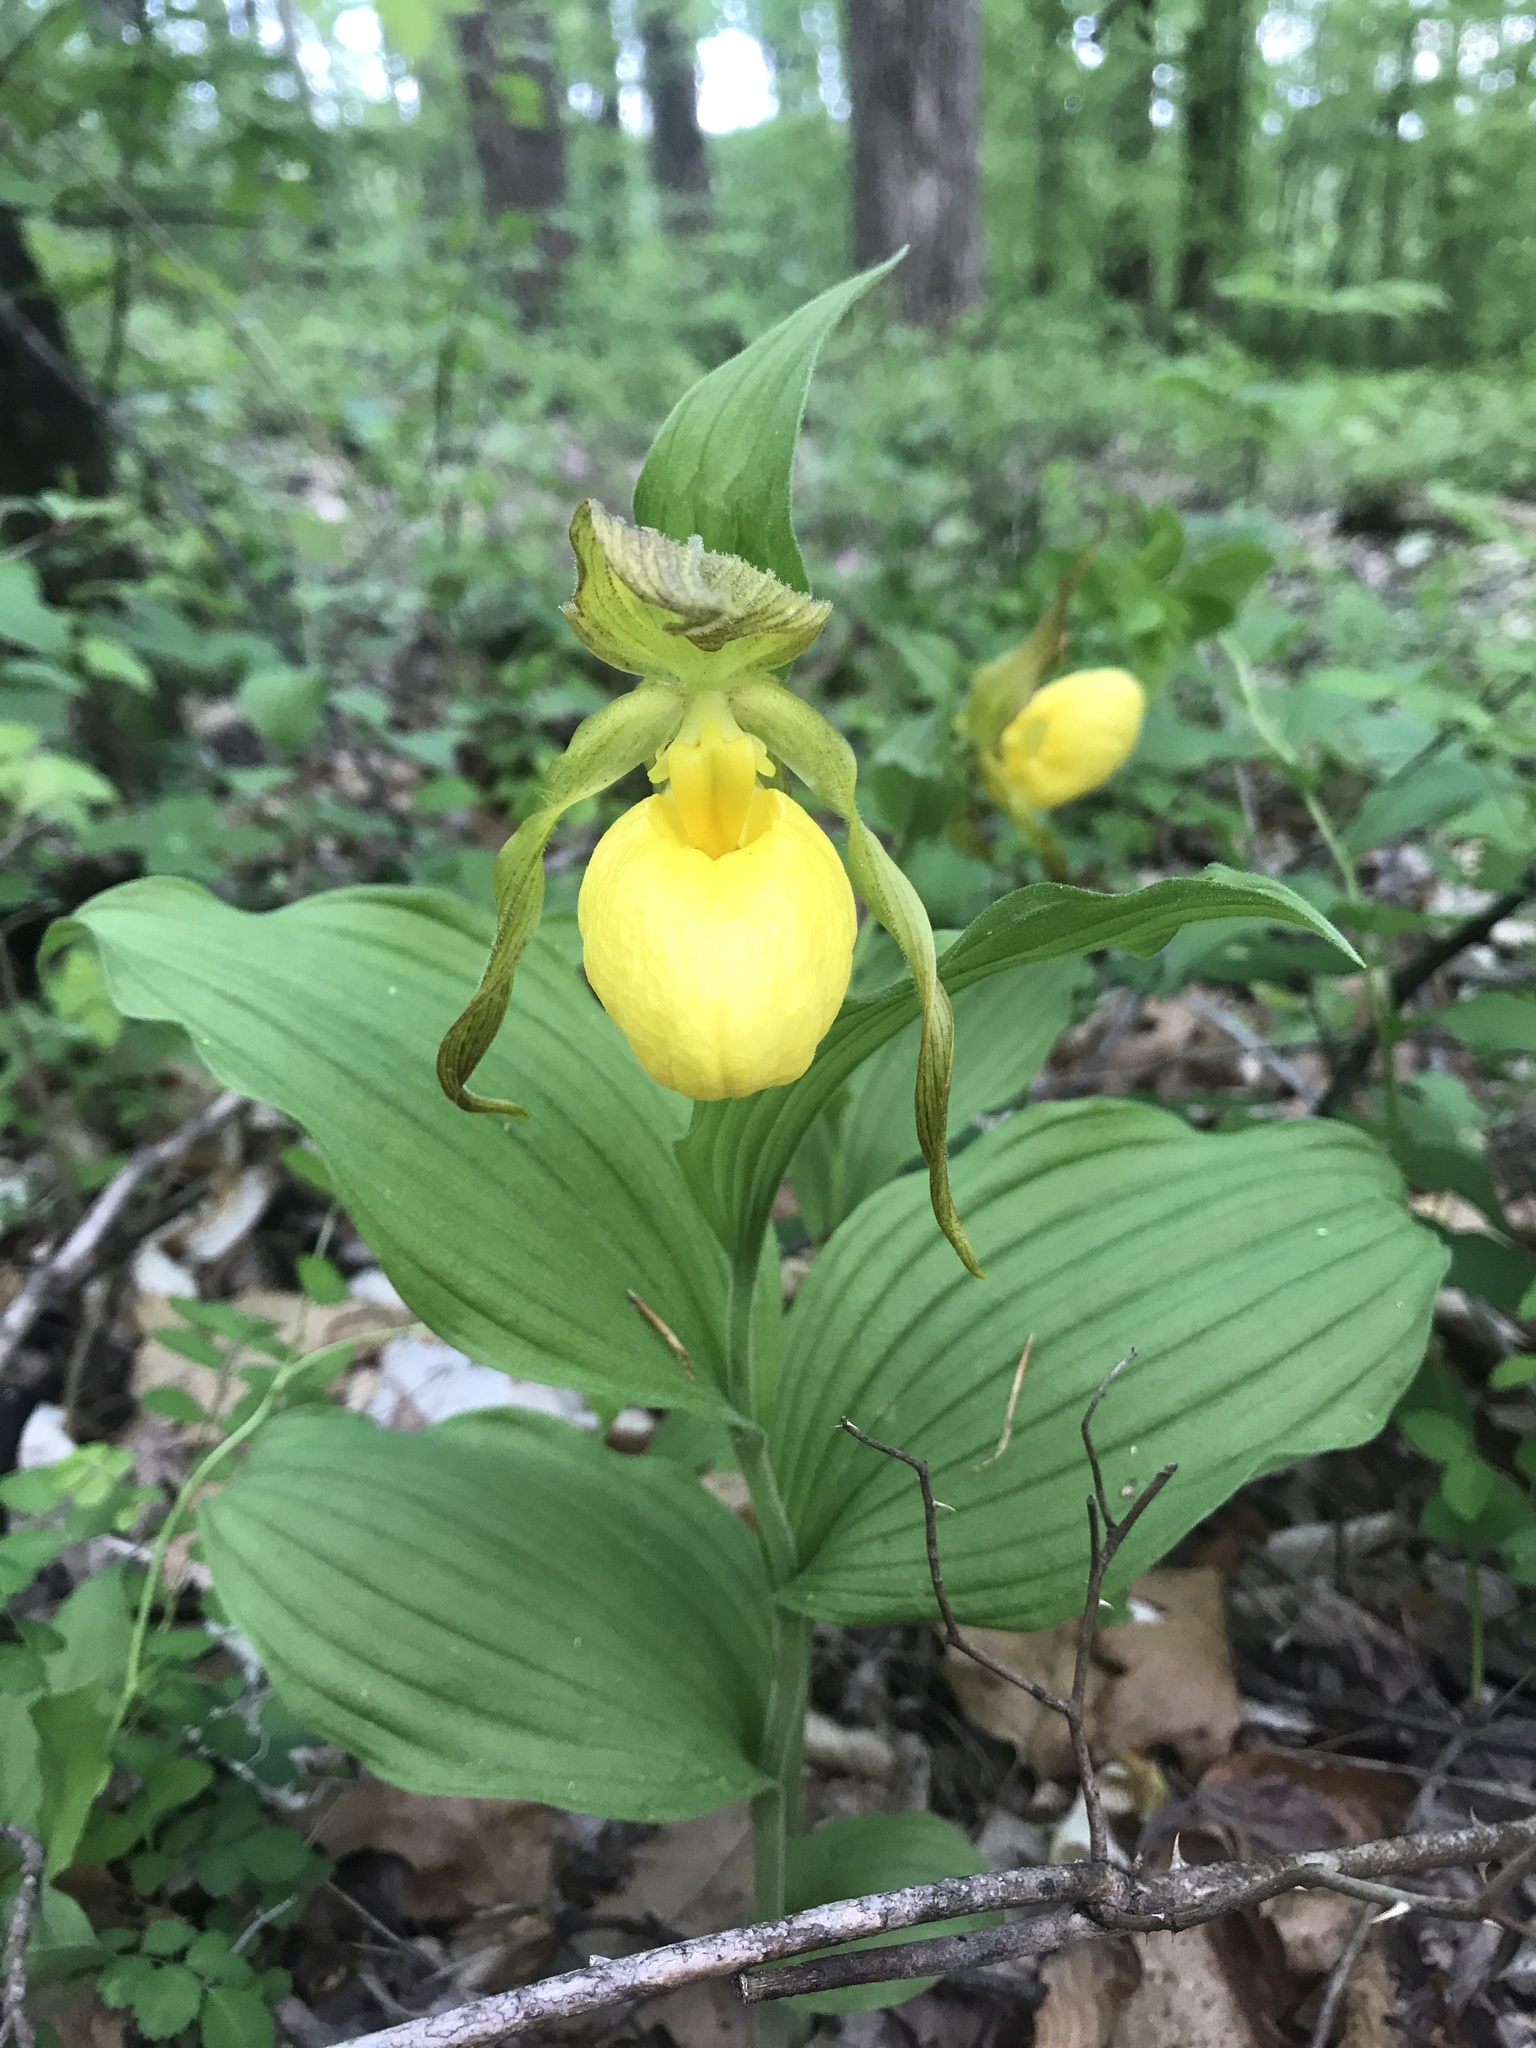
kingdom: Plantae
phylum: Tracheophyta
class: Liliopsida
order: Asparagales
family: Orchidaceae
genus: Cypripedium
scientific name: Cypripedium parviflorum
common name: American yellow lady's-slipper
